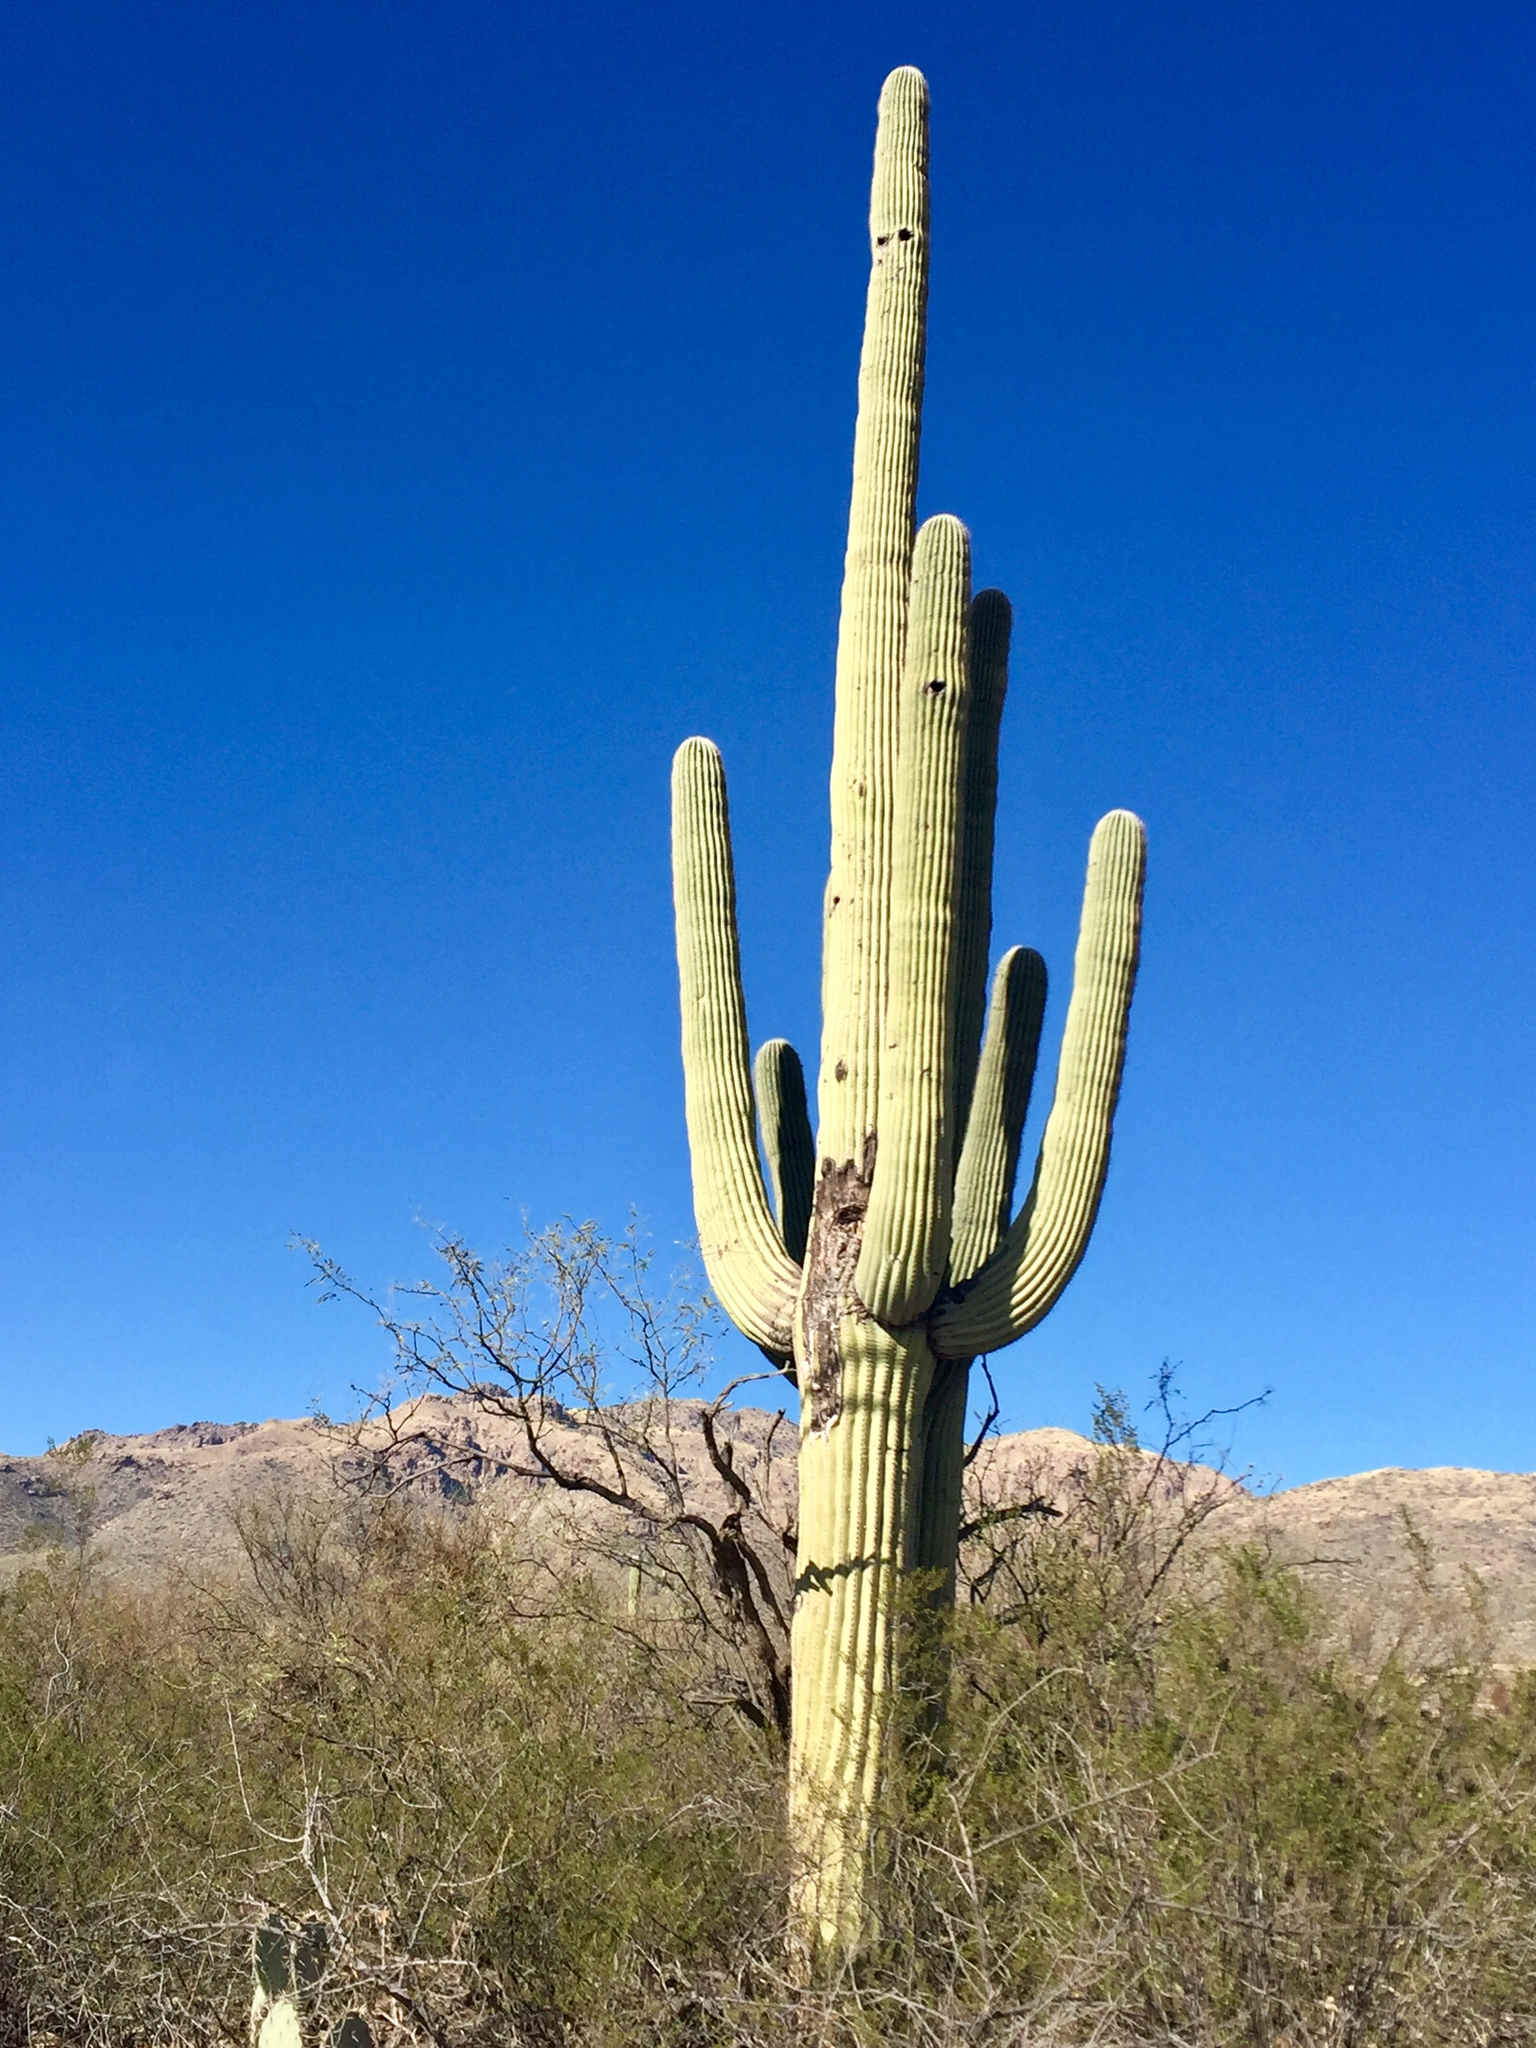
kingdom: Plantae
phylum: Tracheophyta
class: Magnoliopsida
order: Caryophyllales
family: Cactaceae
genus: Carnegiea
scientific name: Carnegiea gigantea
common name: Saguaro
